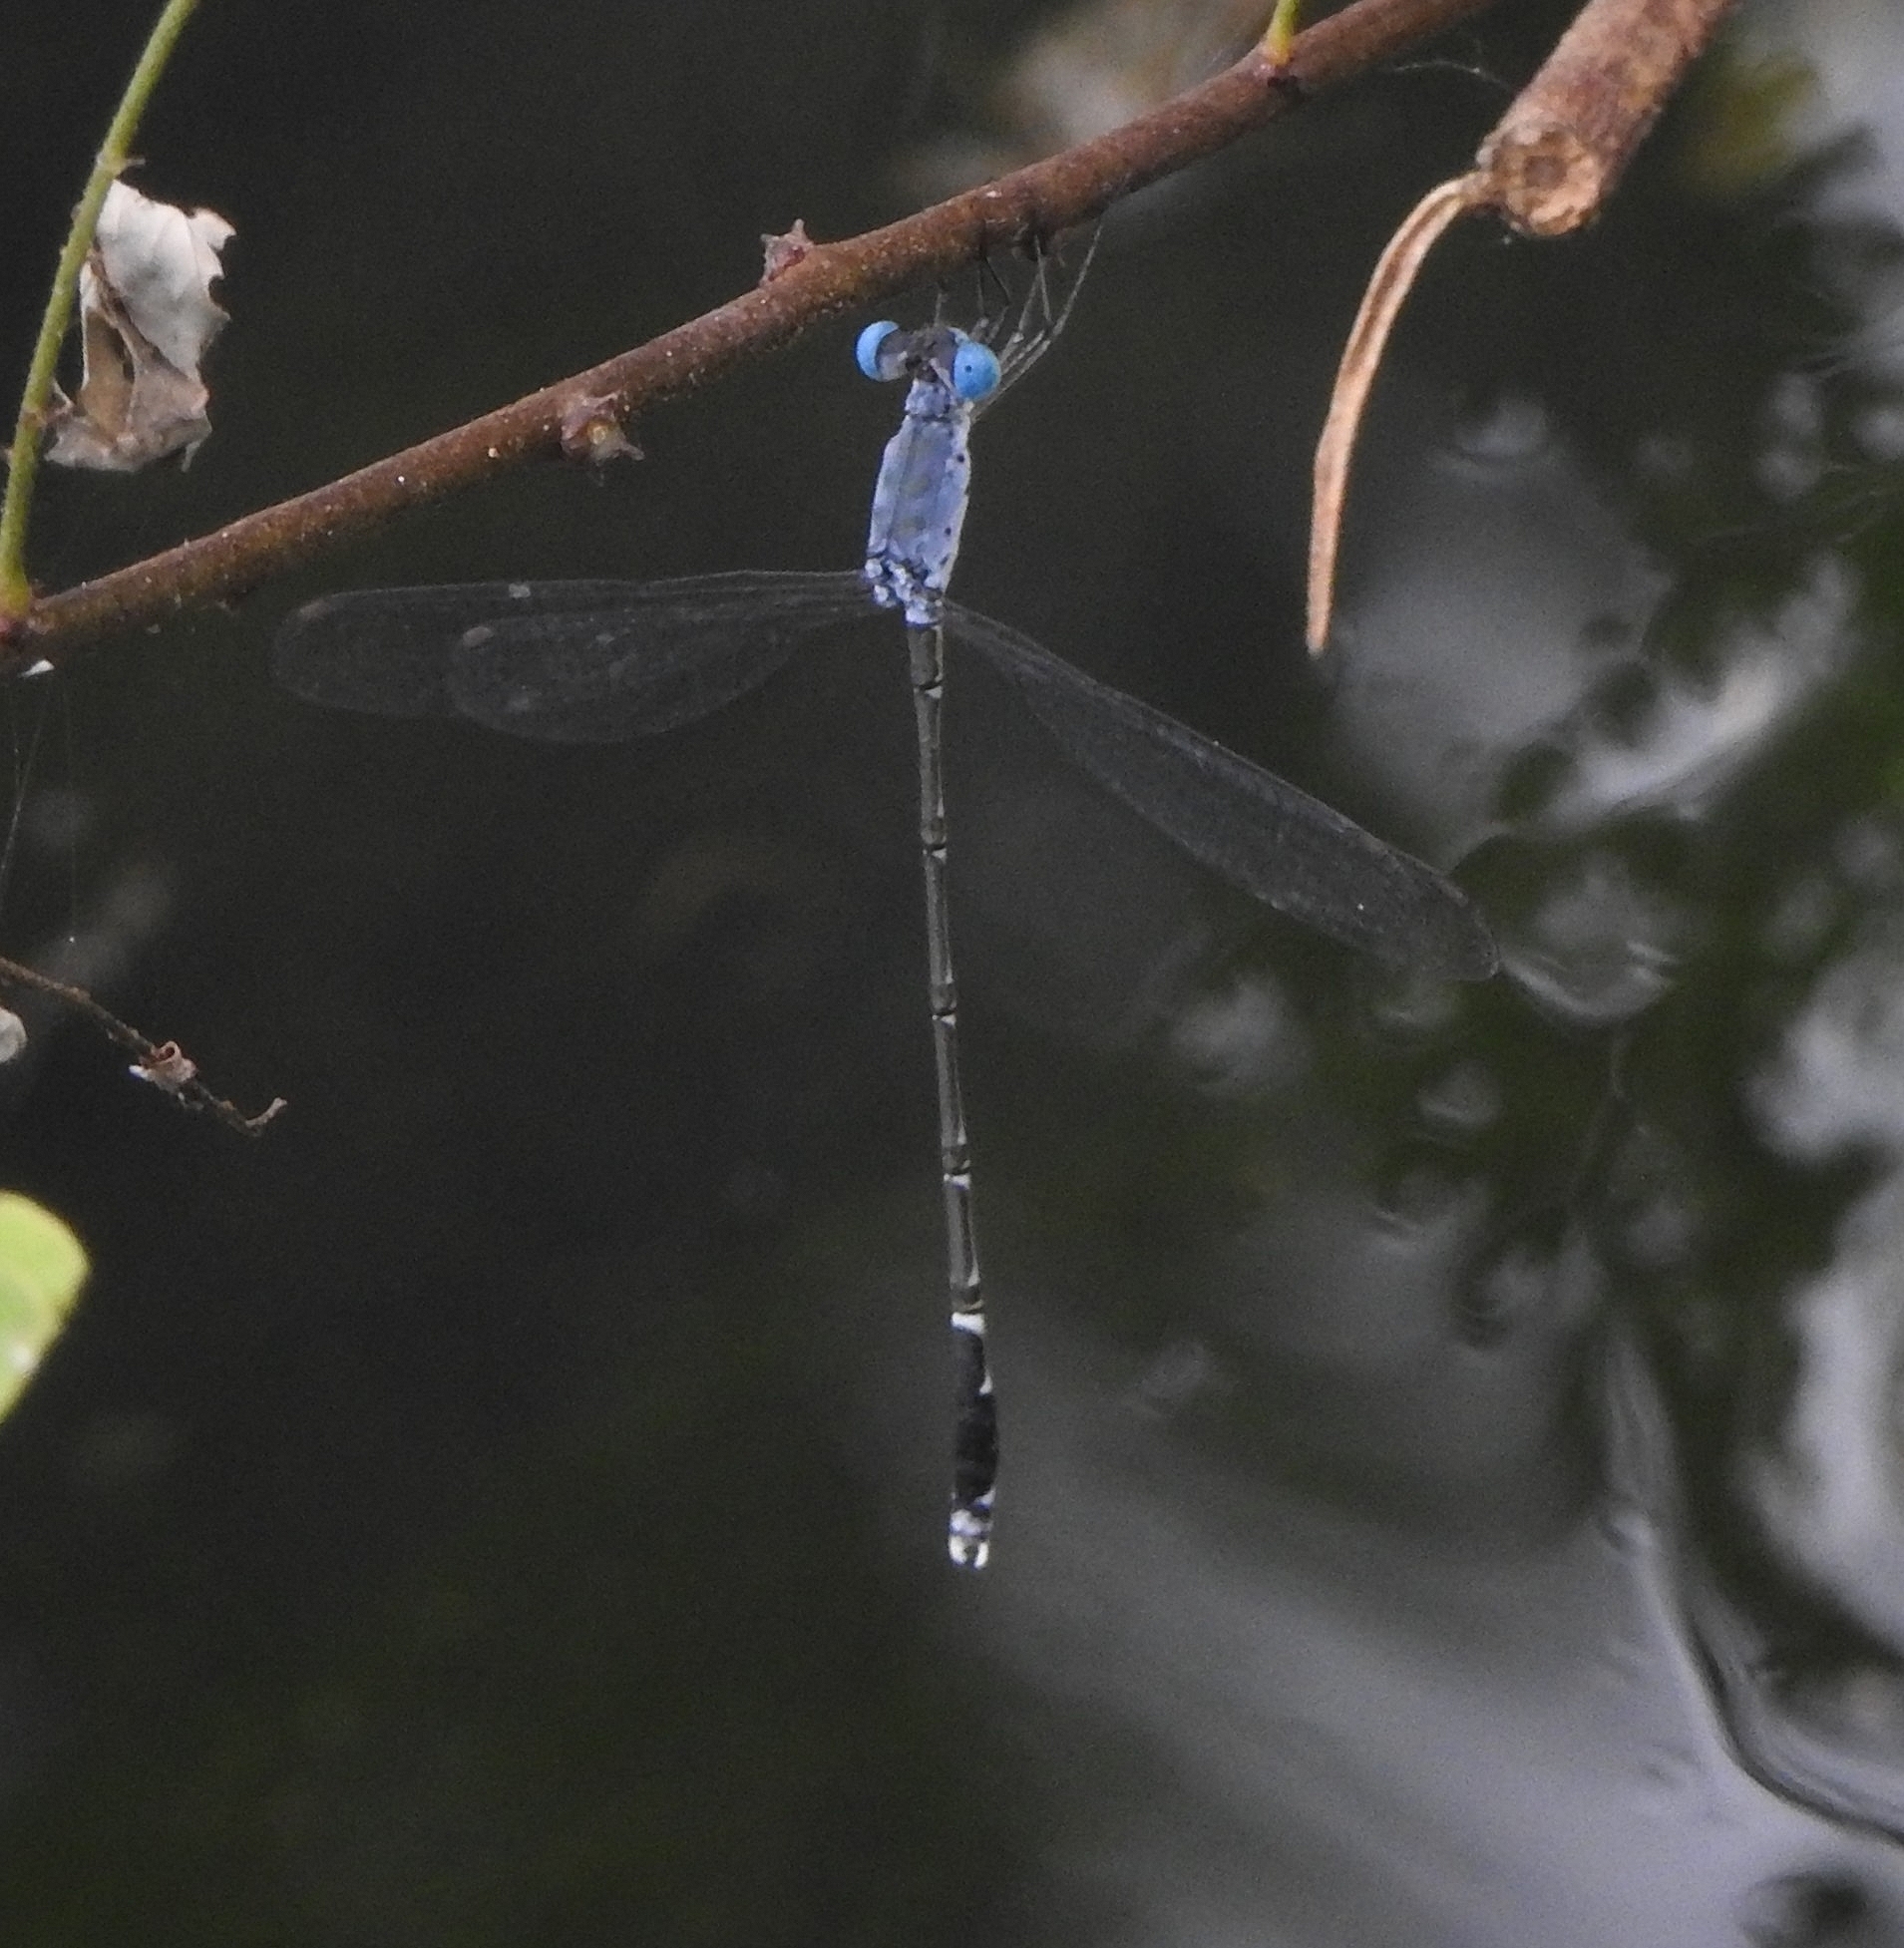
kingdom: Animalia
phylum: Arthropoda
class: Insecta
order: Odonata
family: Lestidae
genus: Lestes
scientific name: Lestes praemorsus
